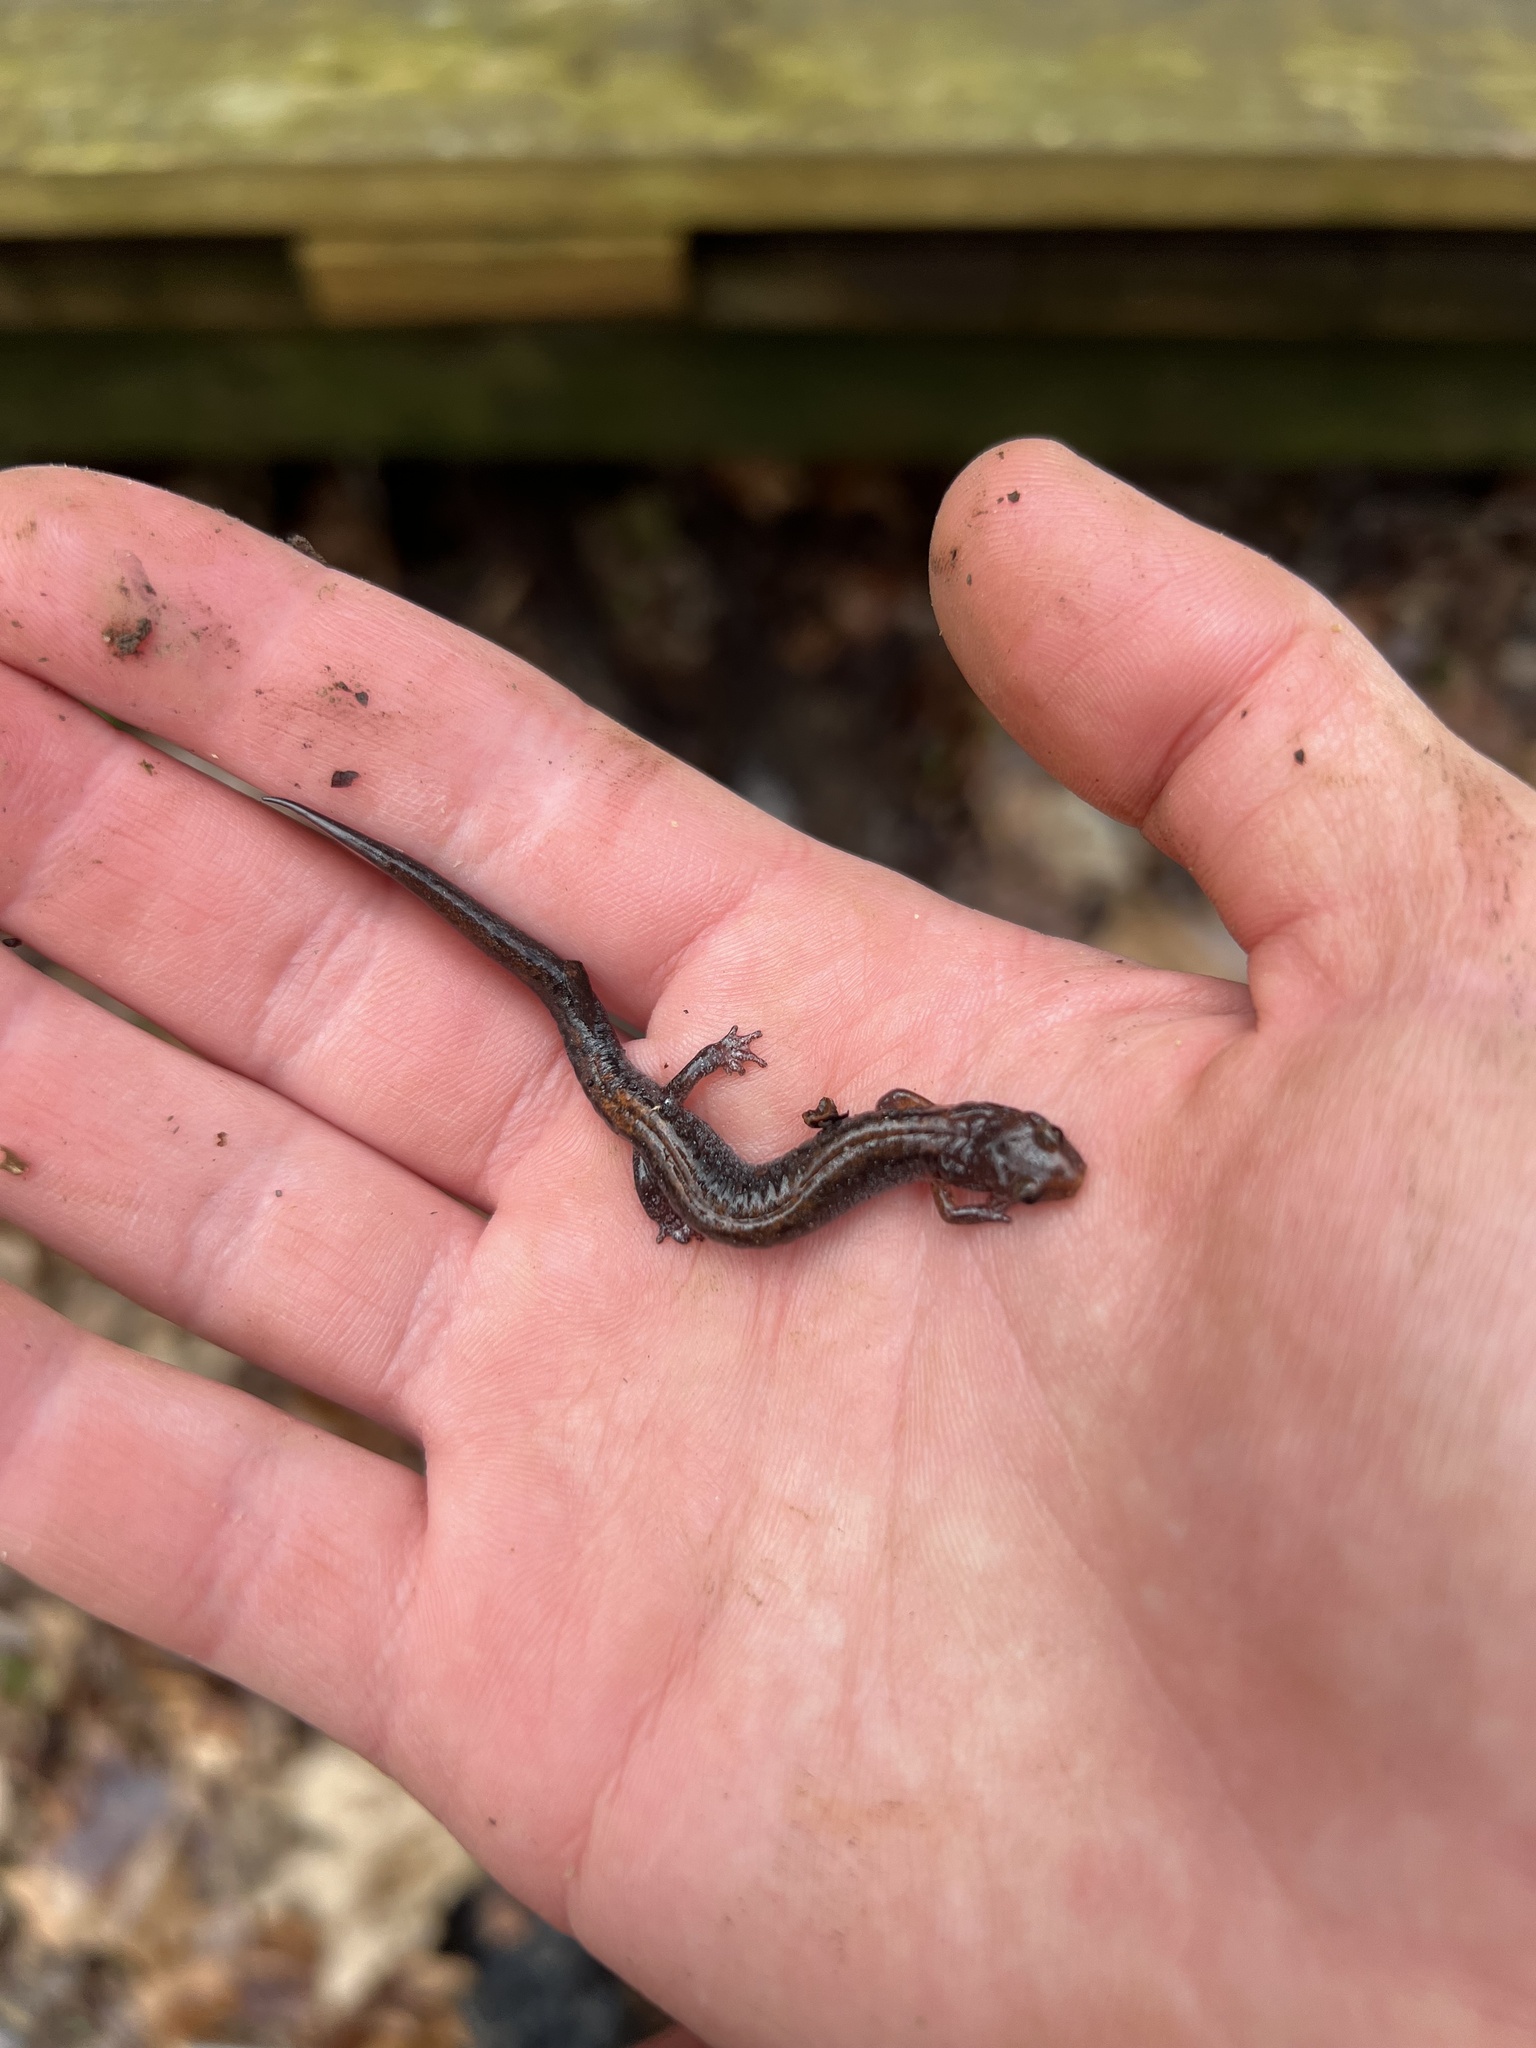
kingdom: Animalia
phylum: Chordata
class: Amphibia
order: Caudata
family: Plethodontidae
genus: Plethodon
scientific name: Plethodon ventralis
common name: Southern zigzag salamander
